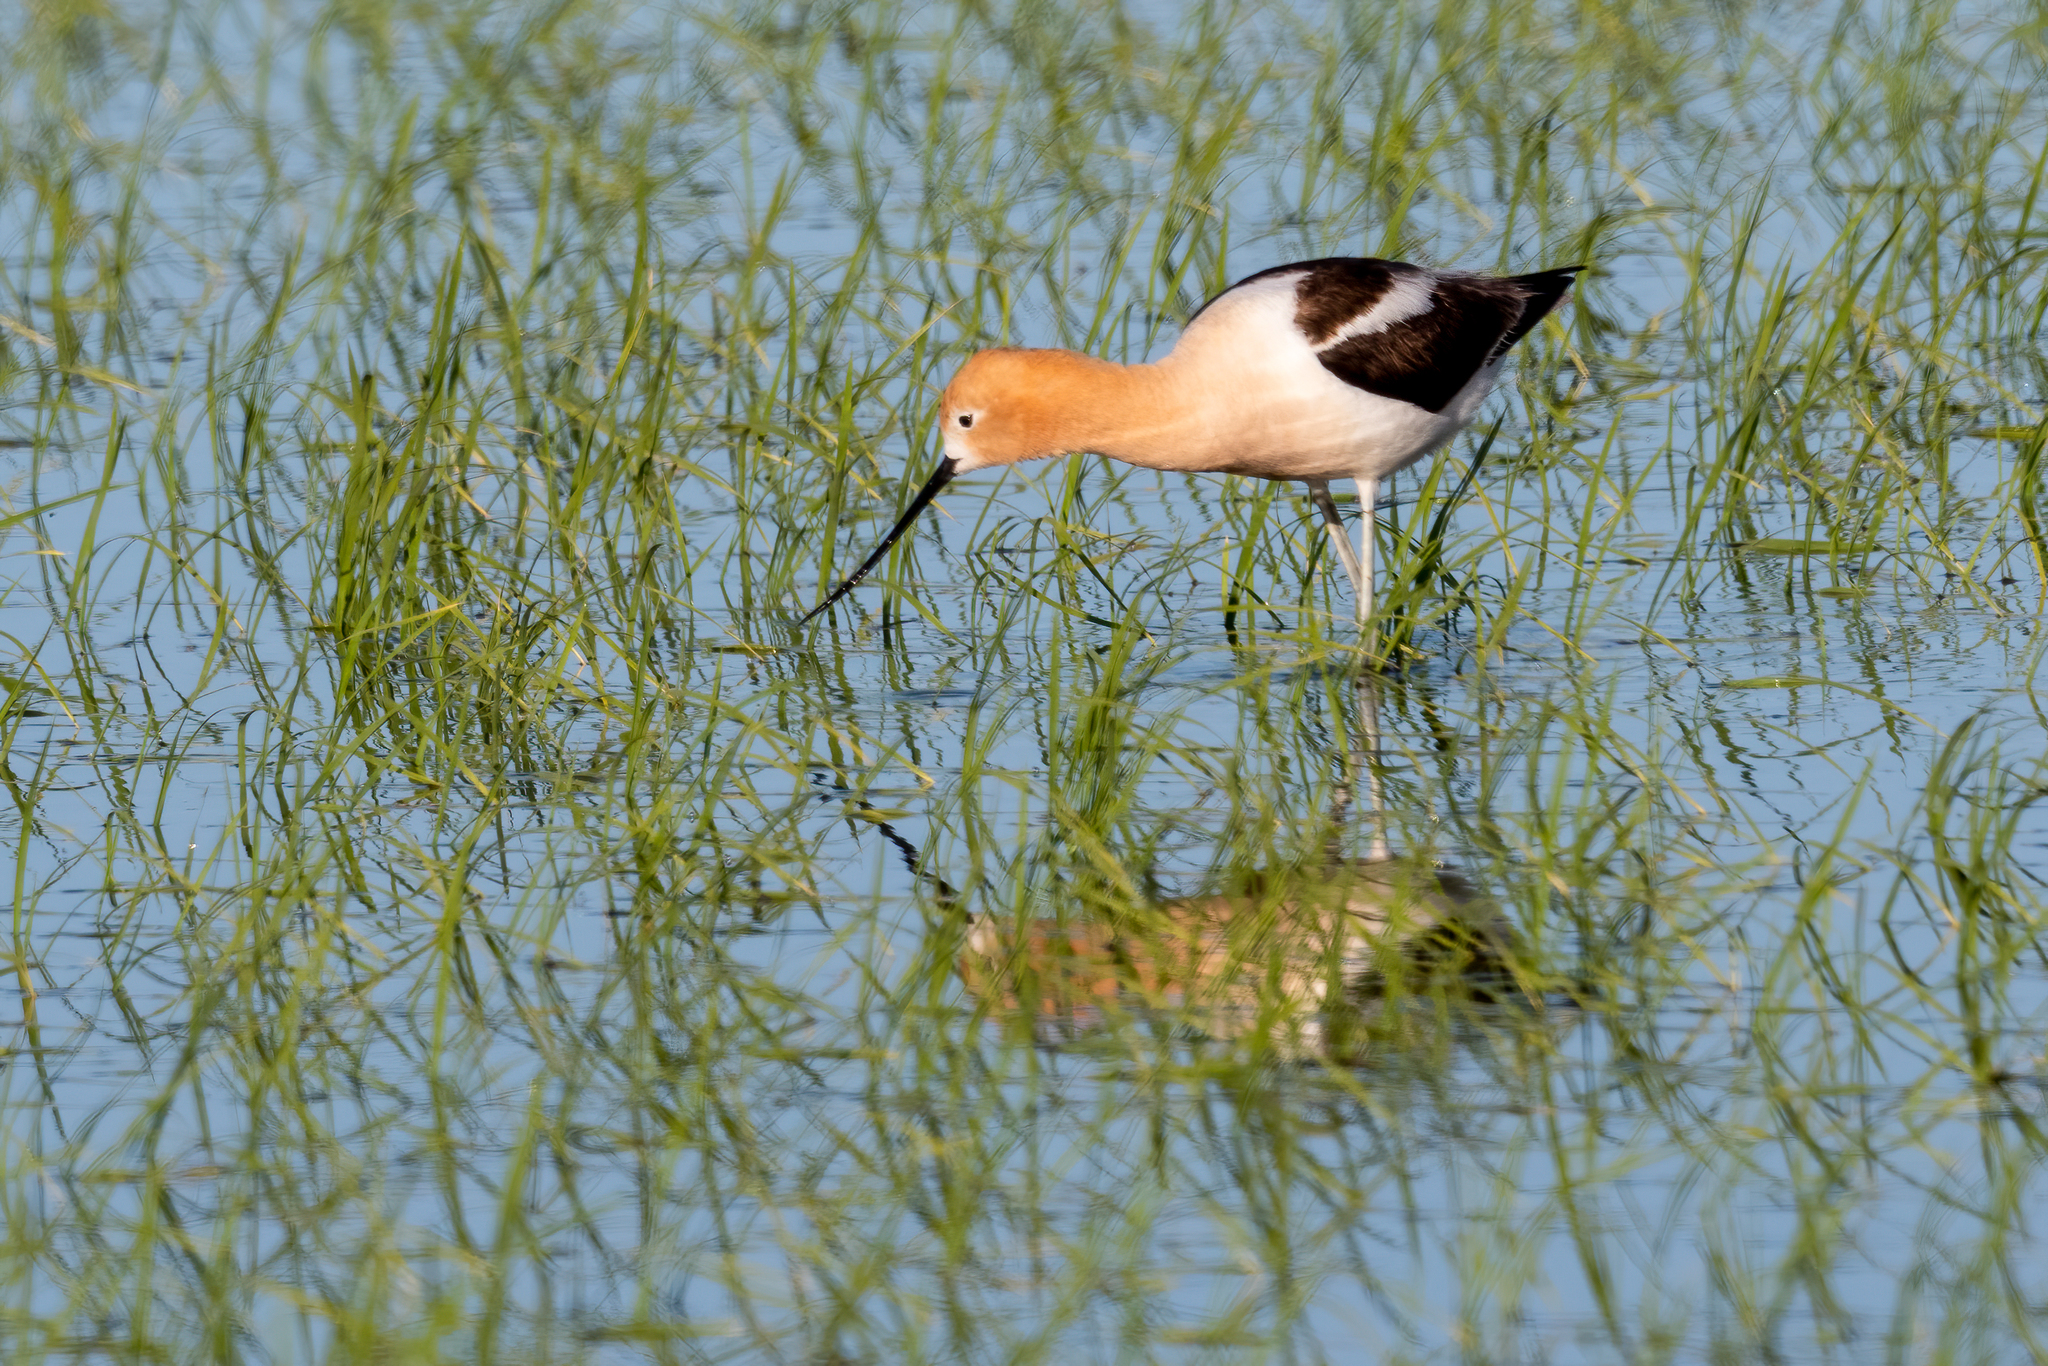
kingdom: Animalia
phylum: Chordata
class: Aves
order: Charadriiformes
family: Recurvirostridae
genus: Recurvirostra
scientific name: Recurvirostra americana
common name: American avocet
